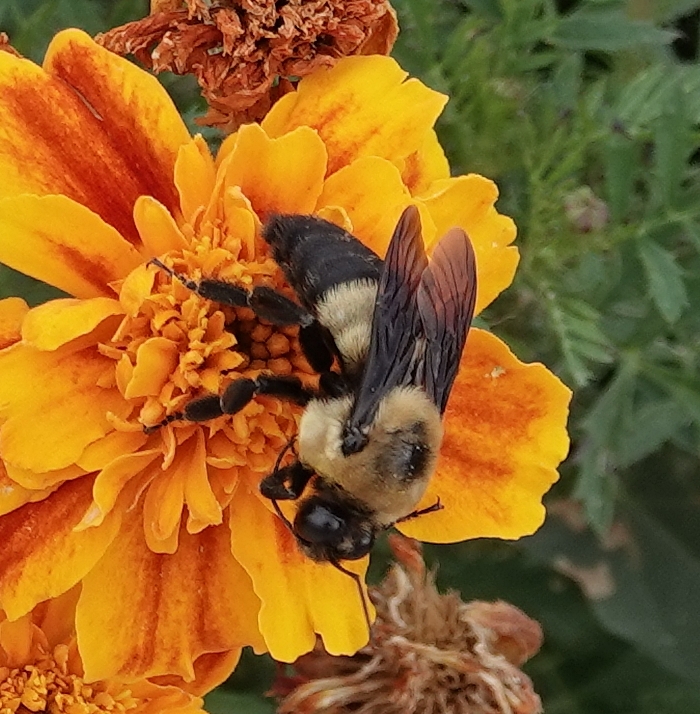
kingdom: Animalia
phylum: Arthropoda
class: Insecta
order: Hymenoptera
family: Apidae
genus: Bombus
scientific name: Bombus fraternus
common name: Southern plains bumble bee
